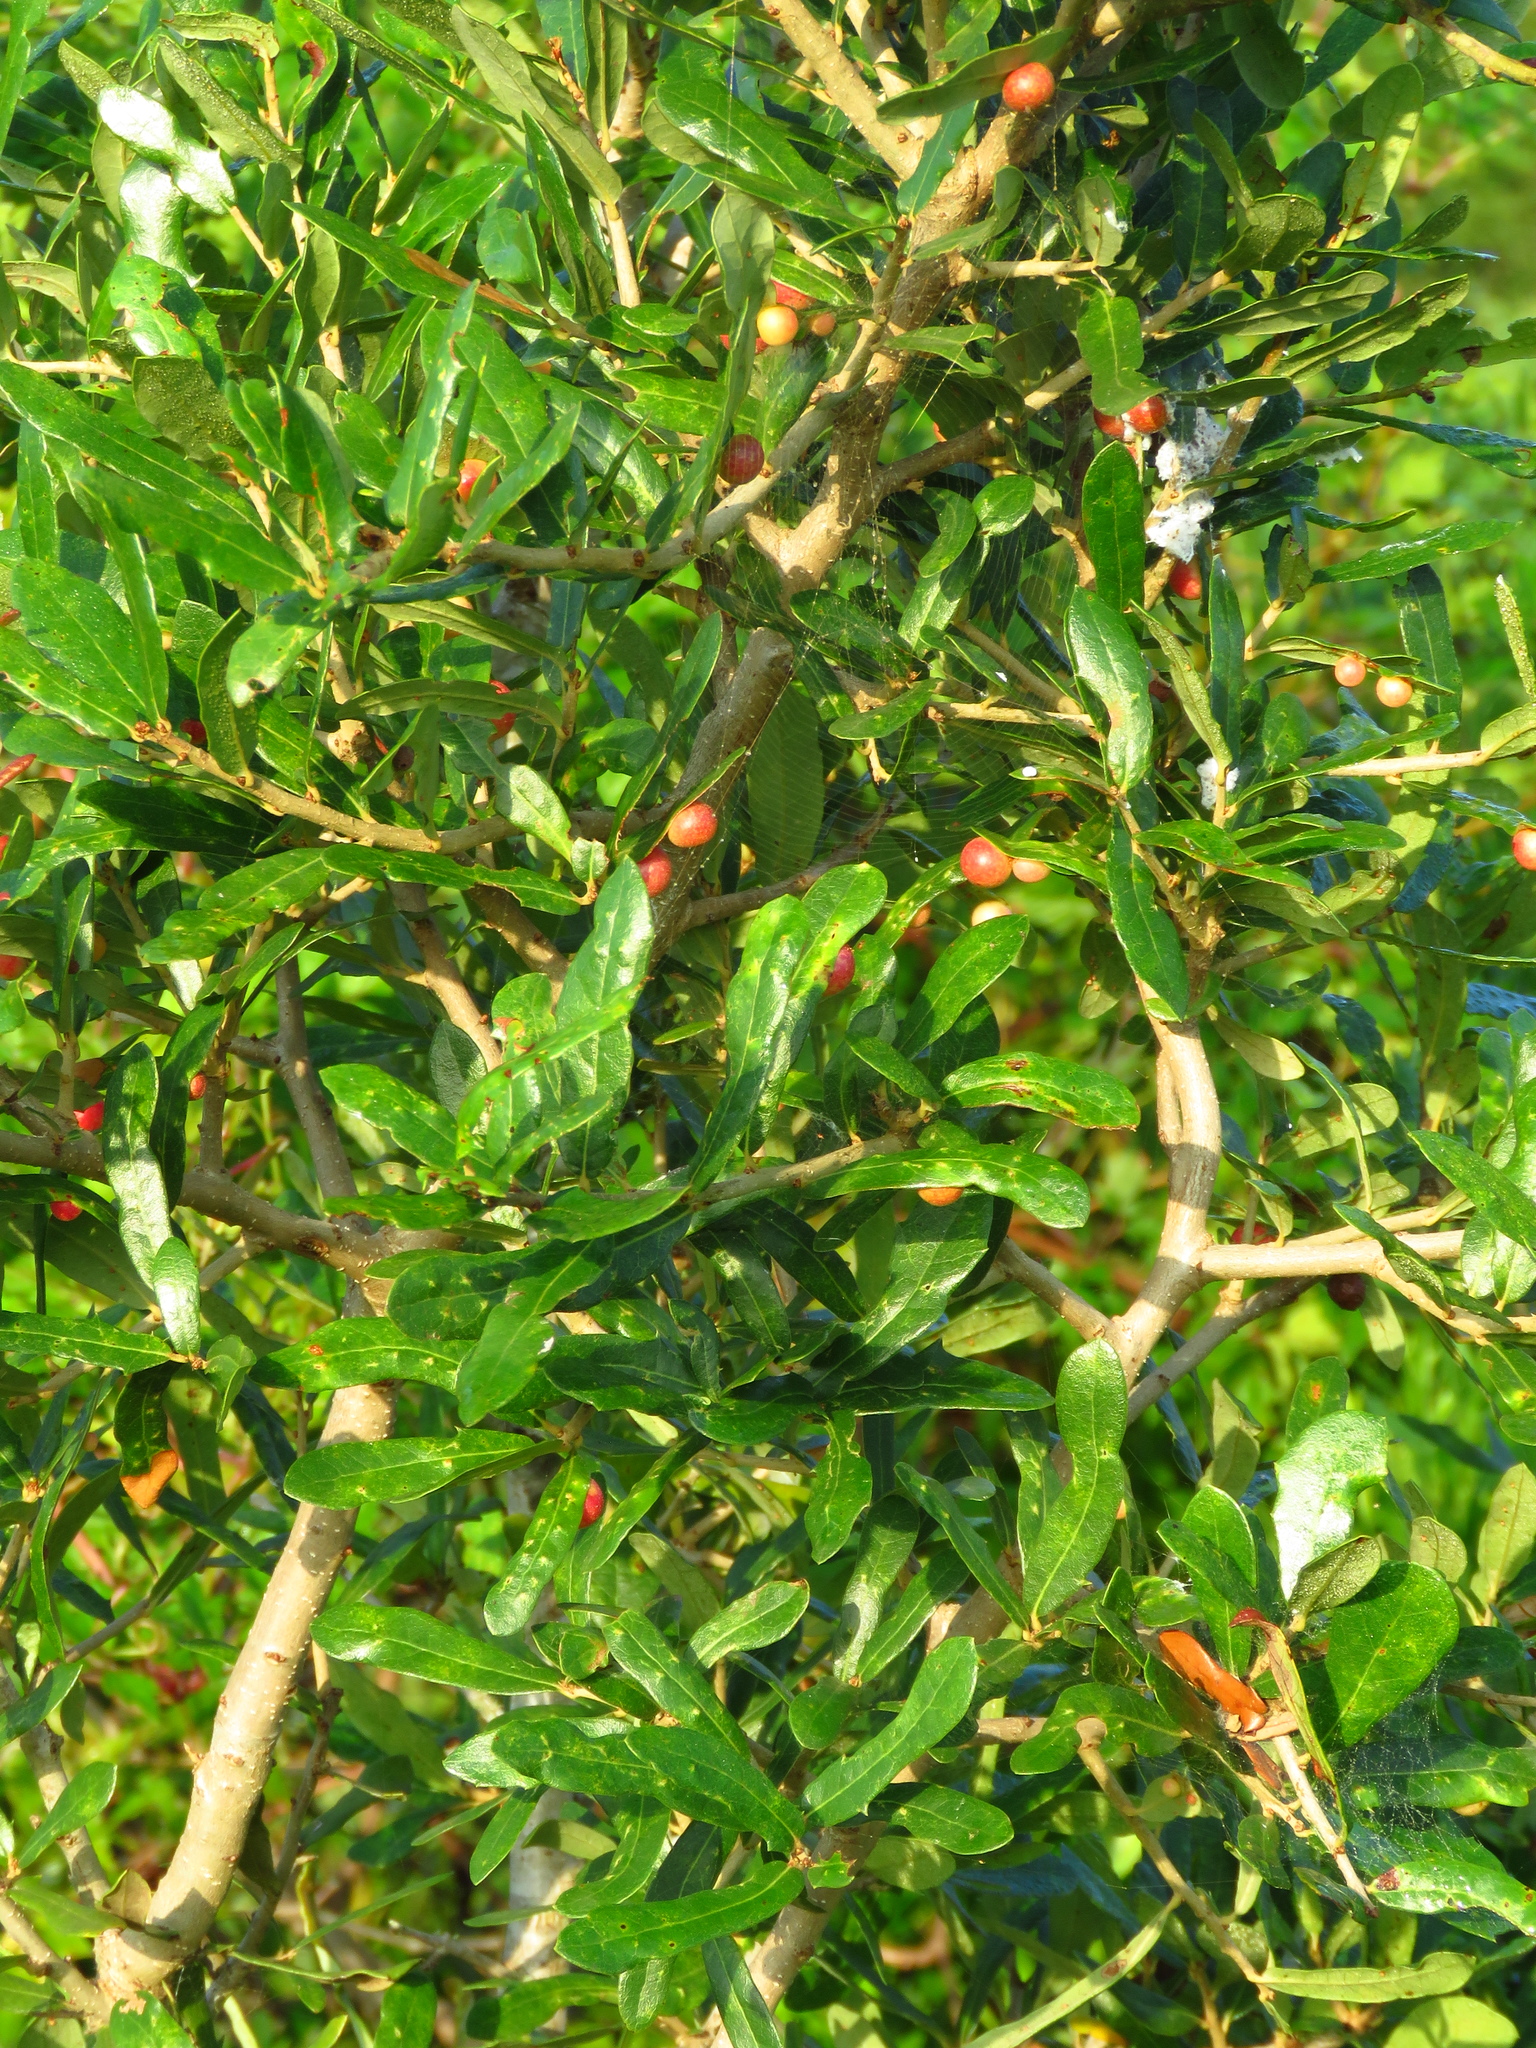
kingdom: Animalia
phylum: Arthropoda
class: Insecta
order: Hymenoptera
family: Cynipidae
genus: Belonocnema
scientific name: Belonocnema kinseyi
